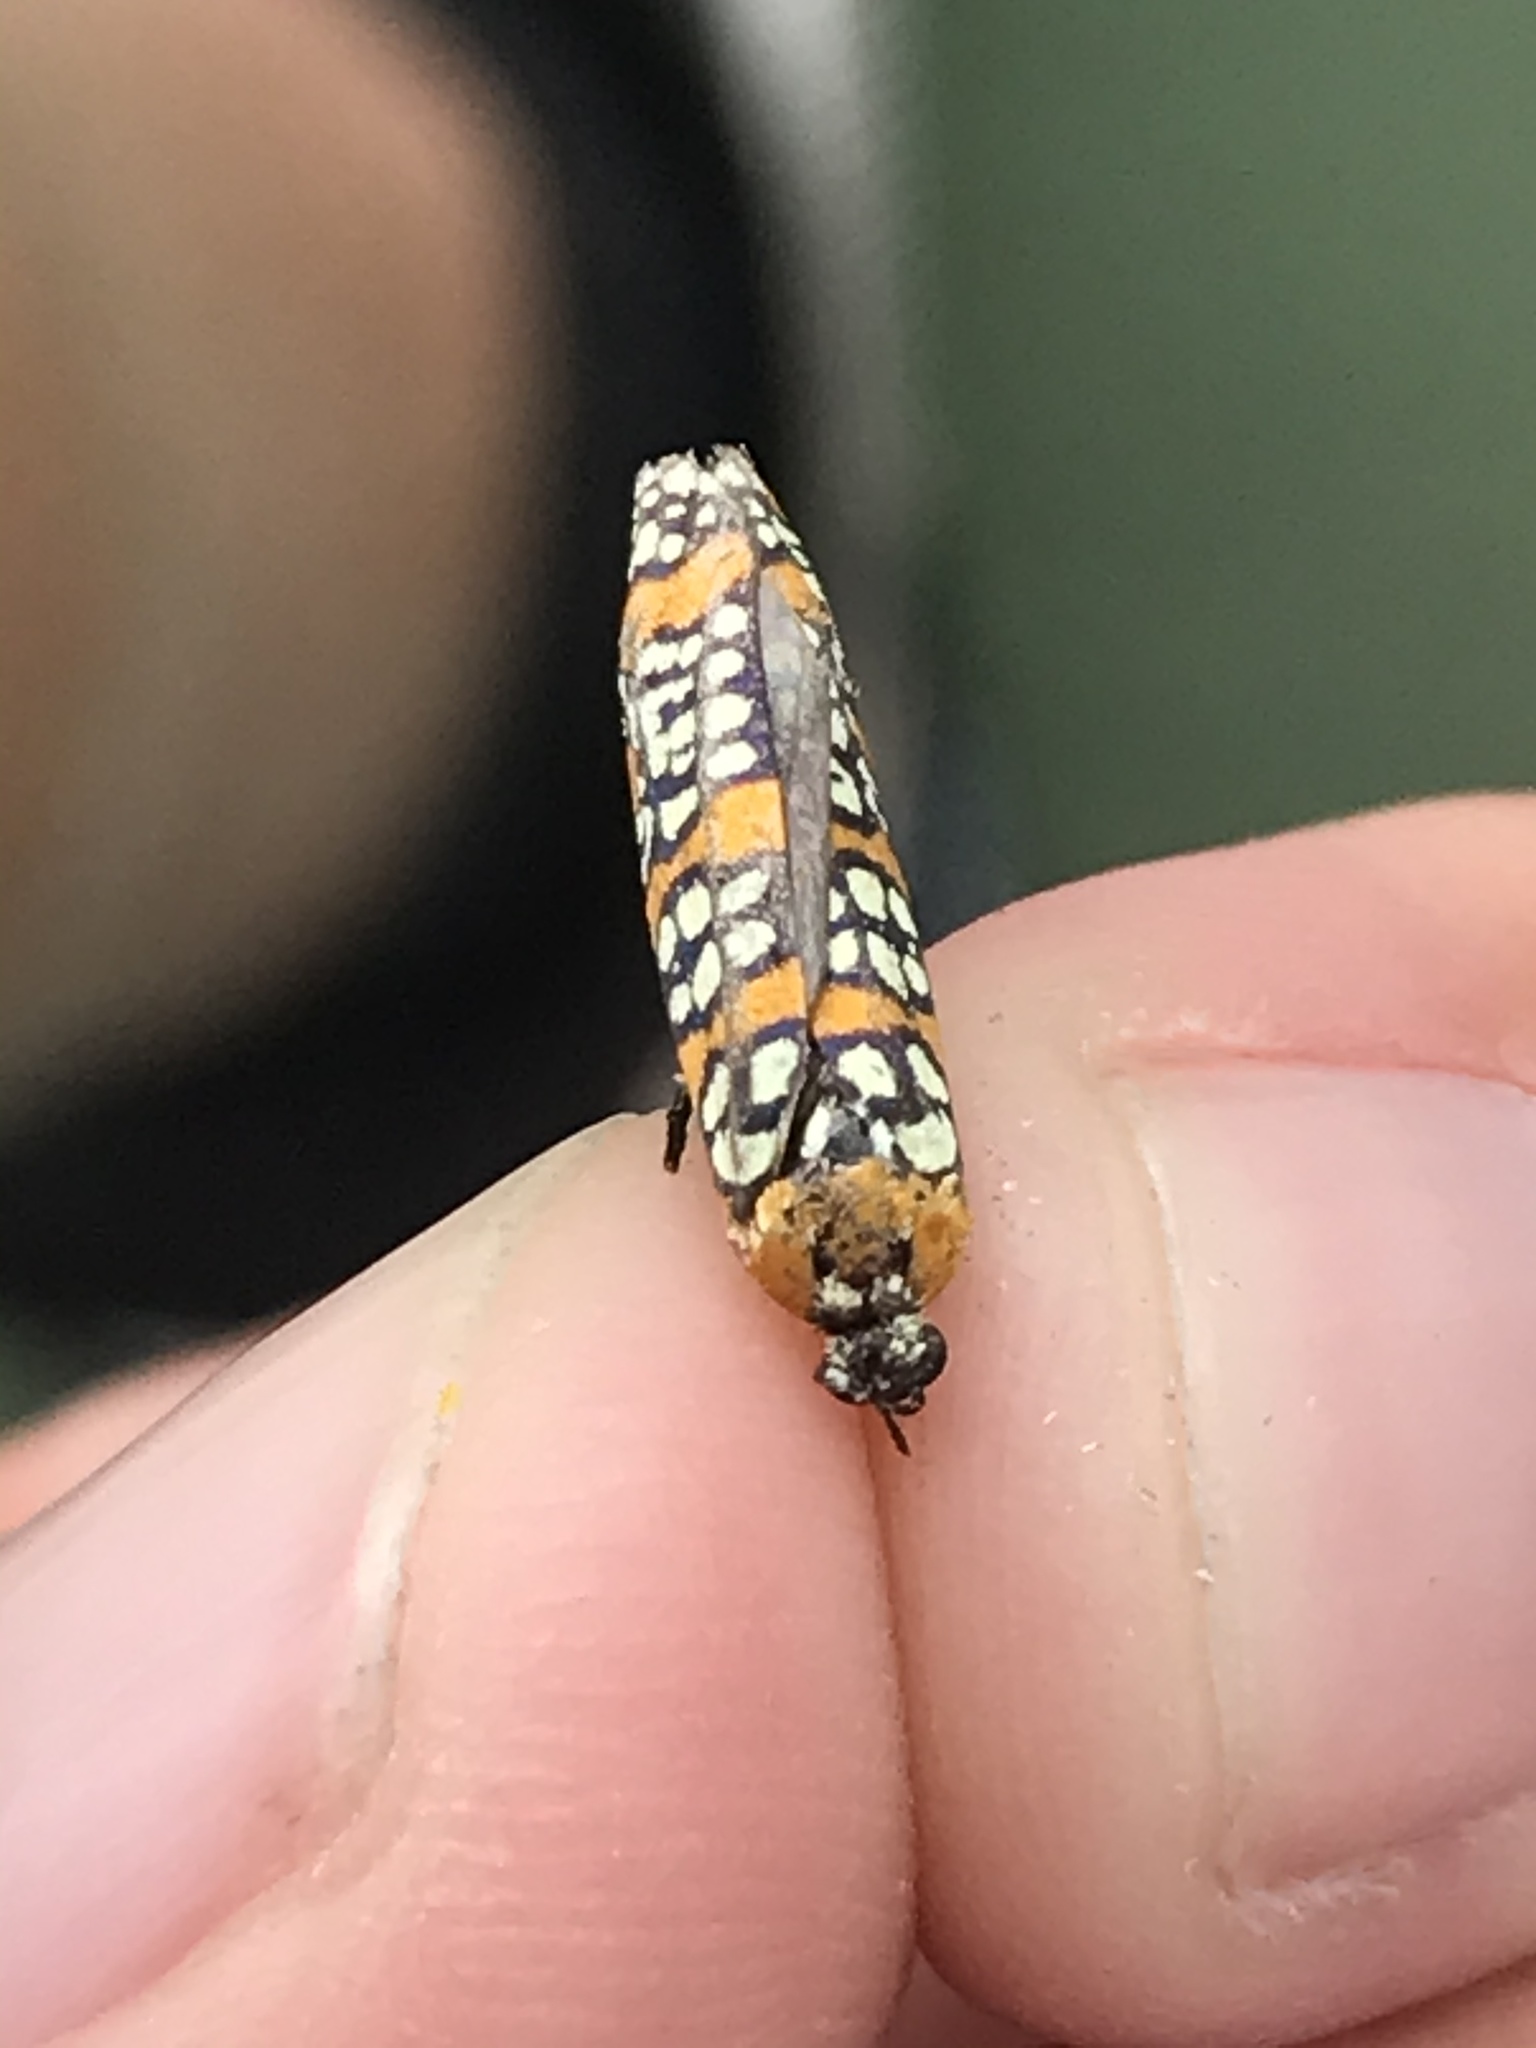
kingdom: Animalia
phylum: Arthropoda
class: Insecta
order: Lepidoptera
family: Attevidae
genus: Atteva
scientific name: Atteva punctella
